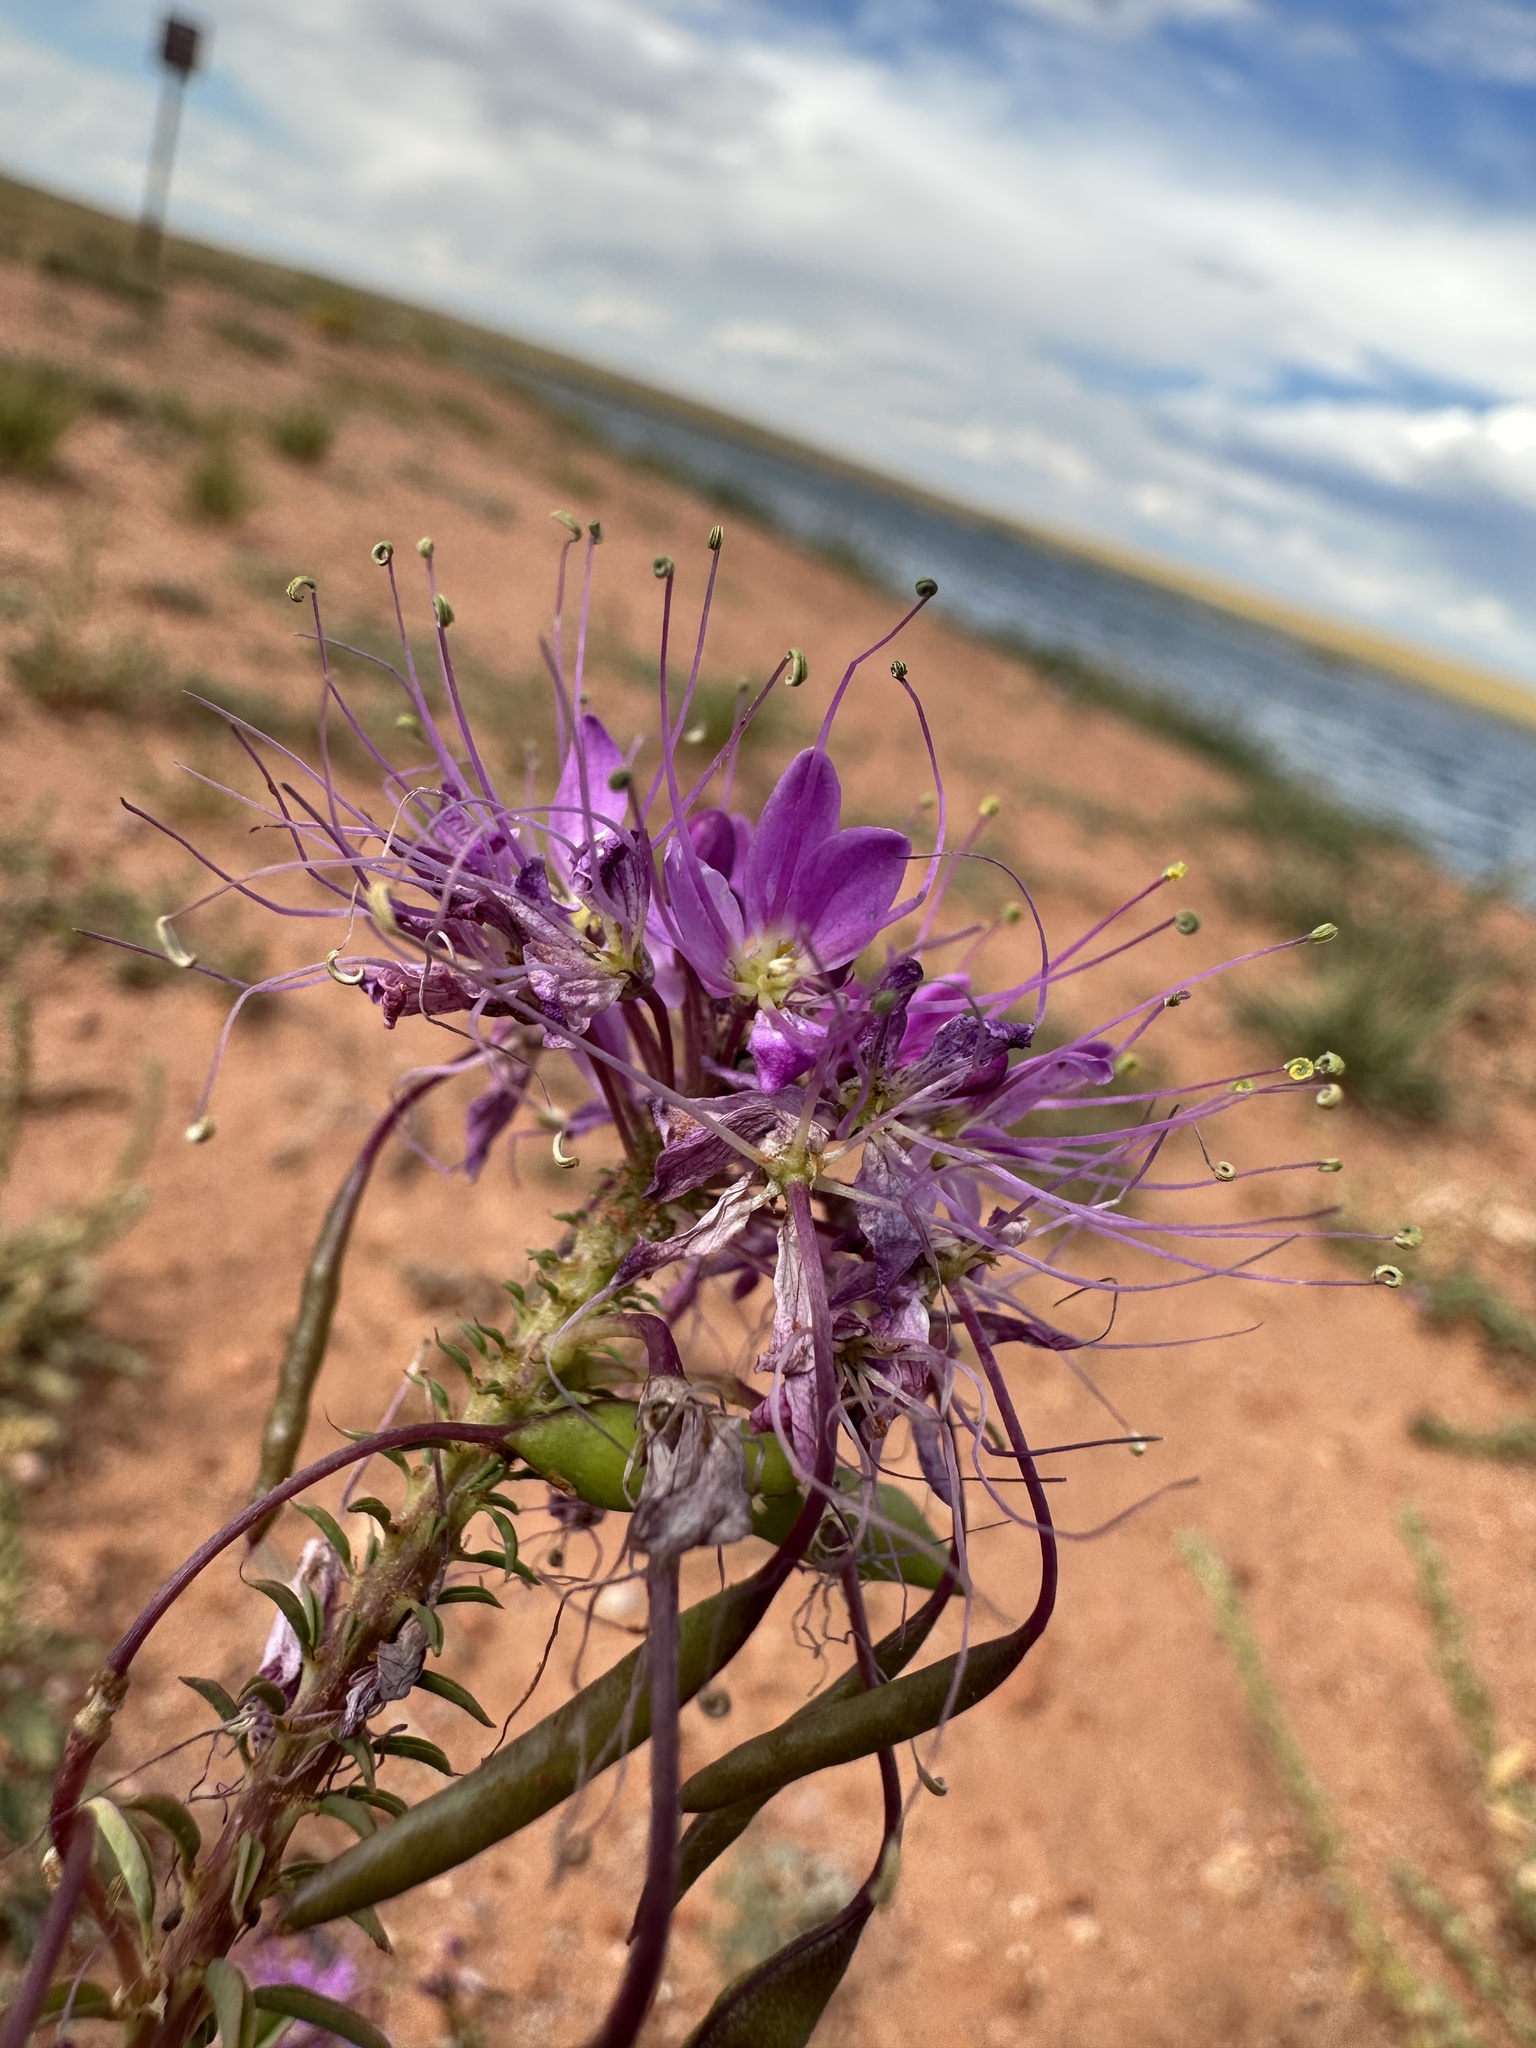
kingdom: Plantae
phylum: Tracheophyta
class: Magnoliopsida
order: Brassicales
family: Cleomaceae
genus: Cleomella
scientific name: Cleomella serrulata
